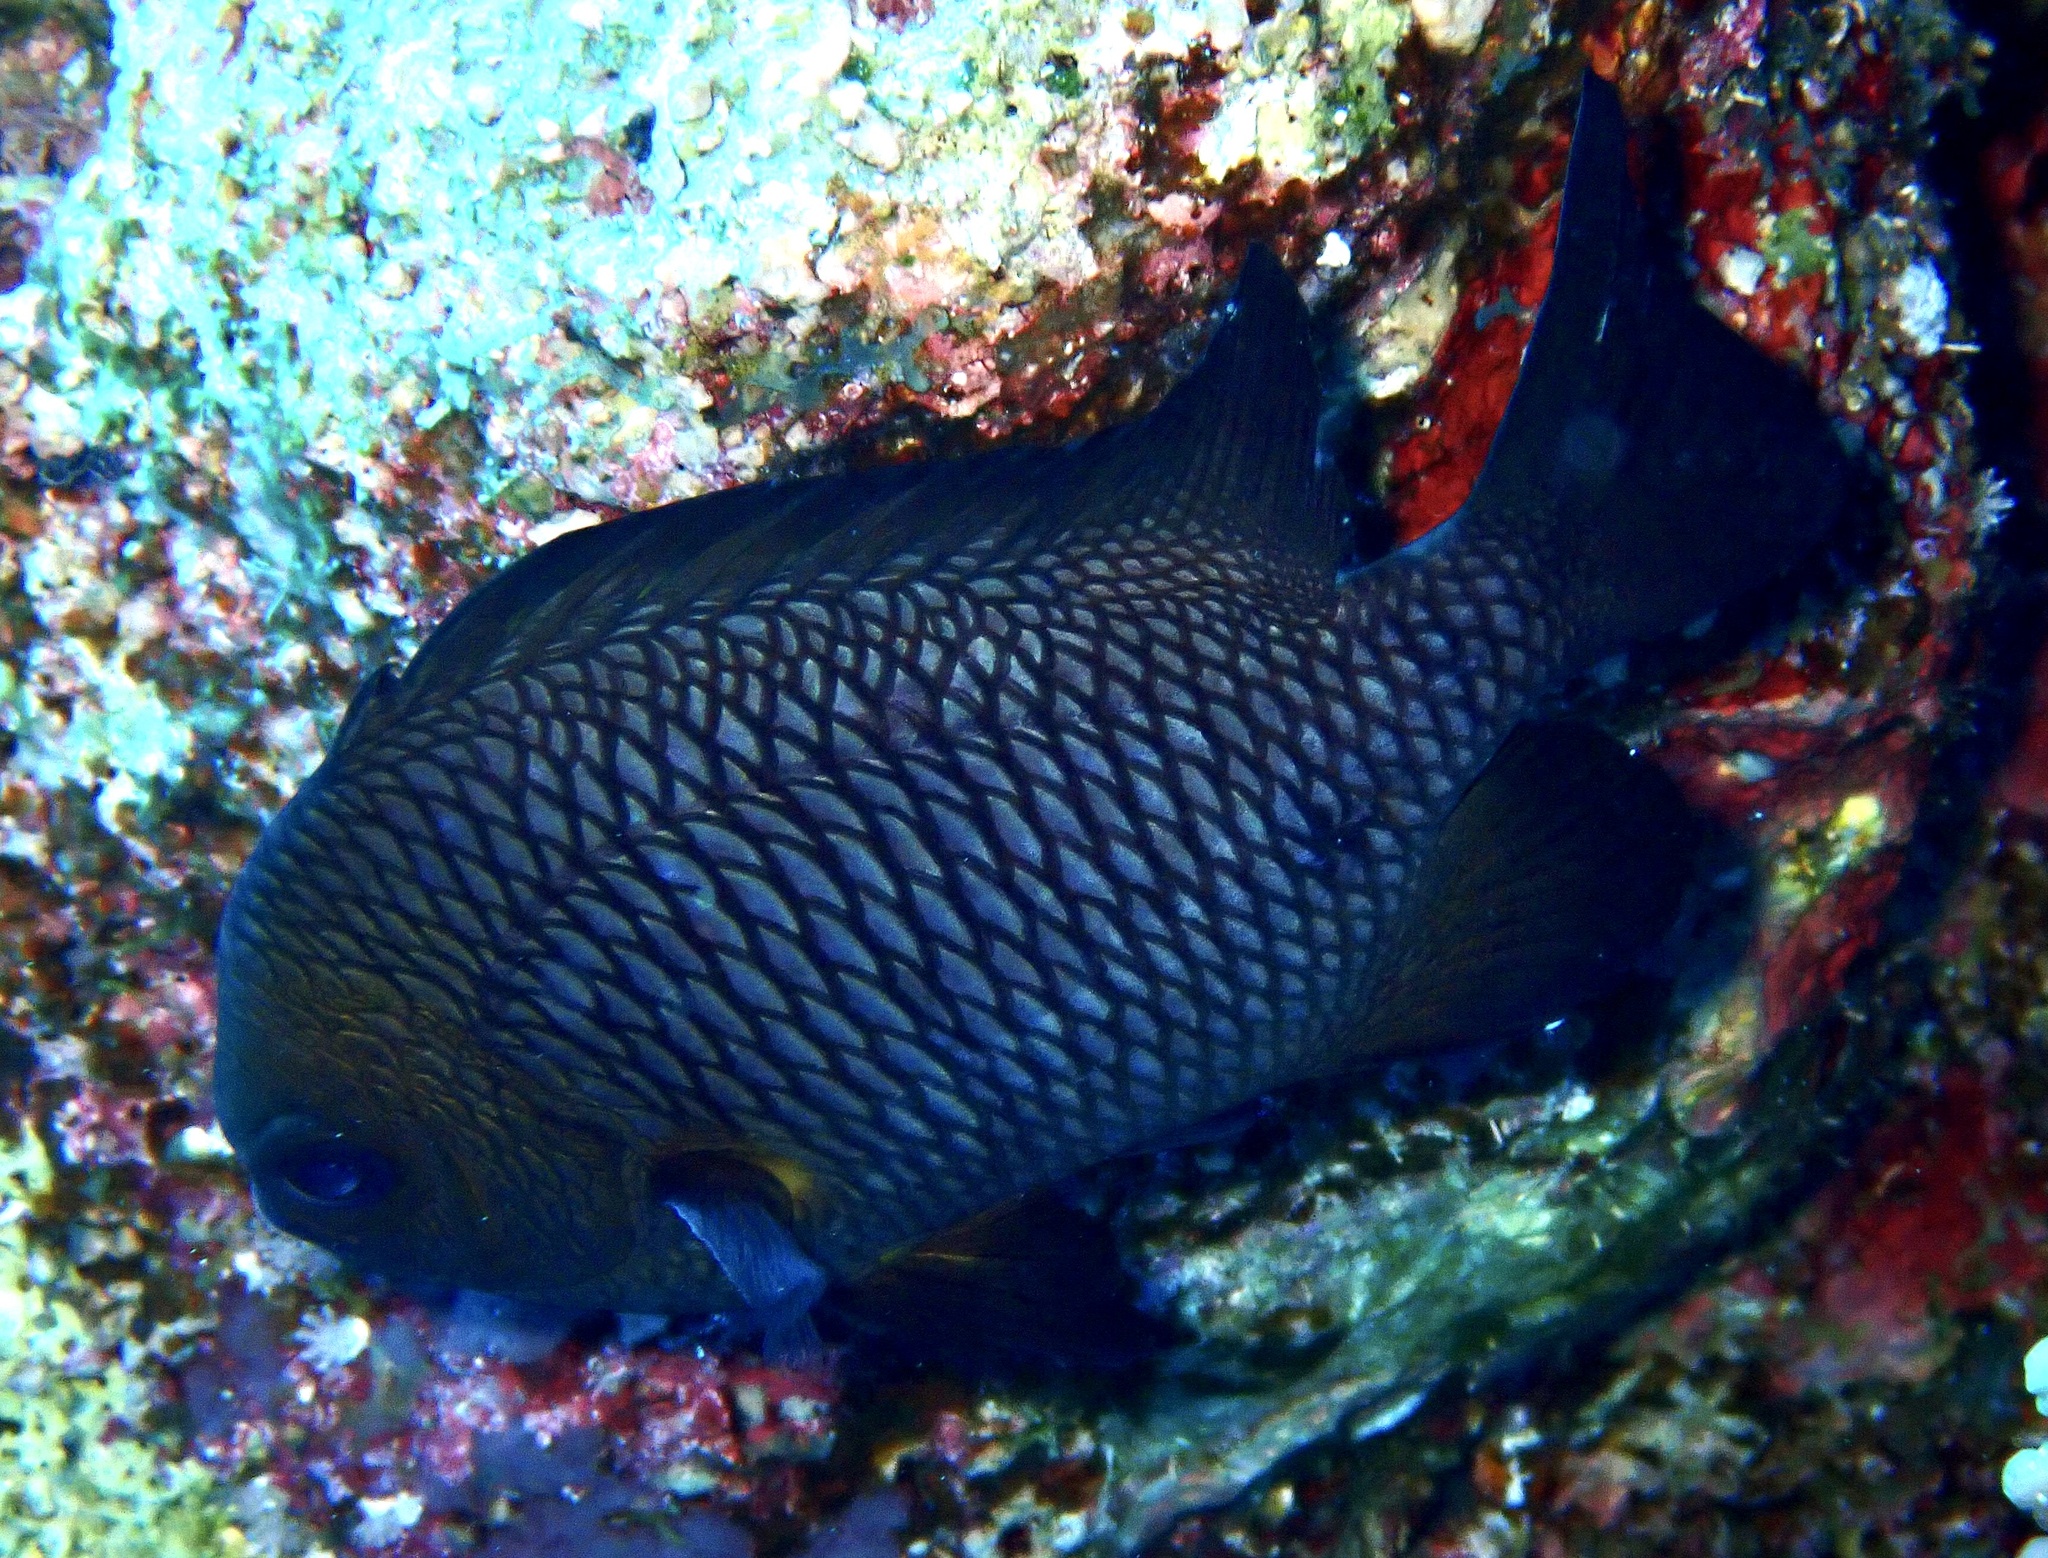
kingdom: Animalia
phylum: Chordata
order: Perciformes
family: Pomacentridae
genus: Dascyllus
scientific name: Dascyllus trimaculatus
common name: Threespot dascyllus
